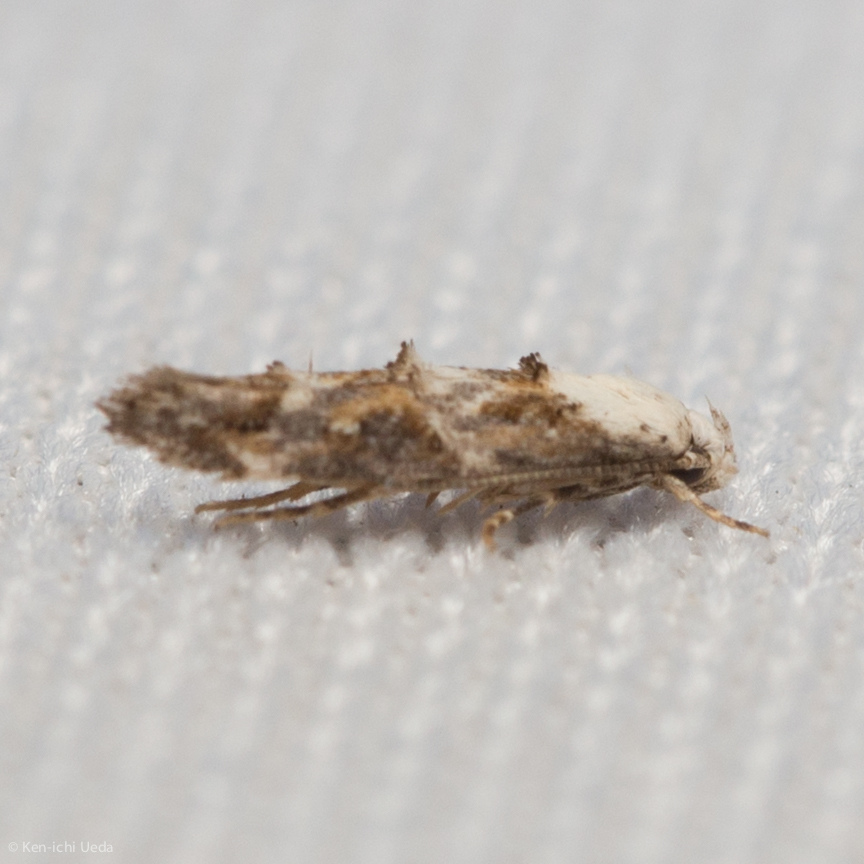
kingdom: Animalia
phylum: Arthropoda
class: Insecta
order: Lepidoptera
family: Momphidae
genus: Mompha
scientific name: Mompha albocapitella
